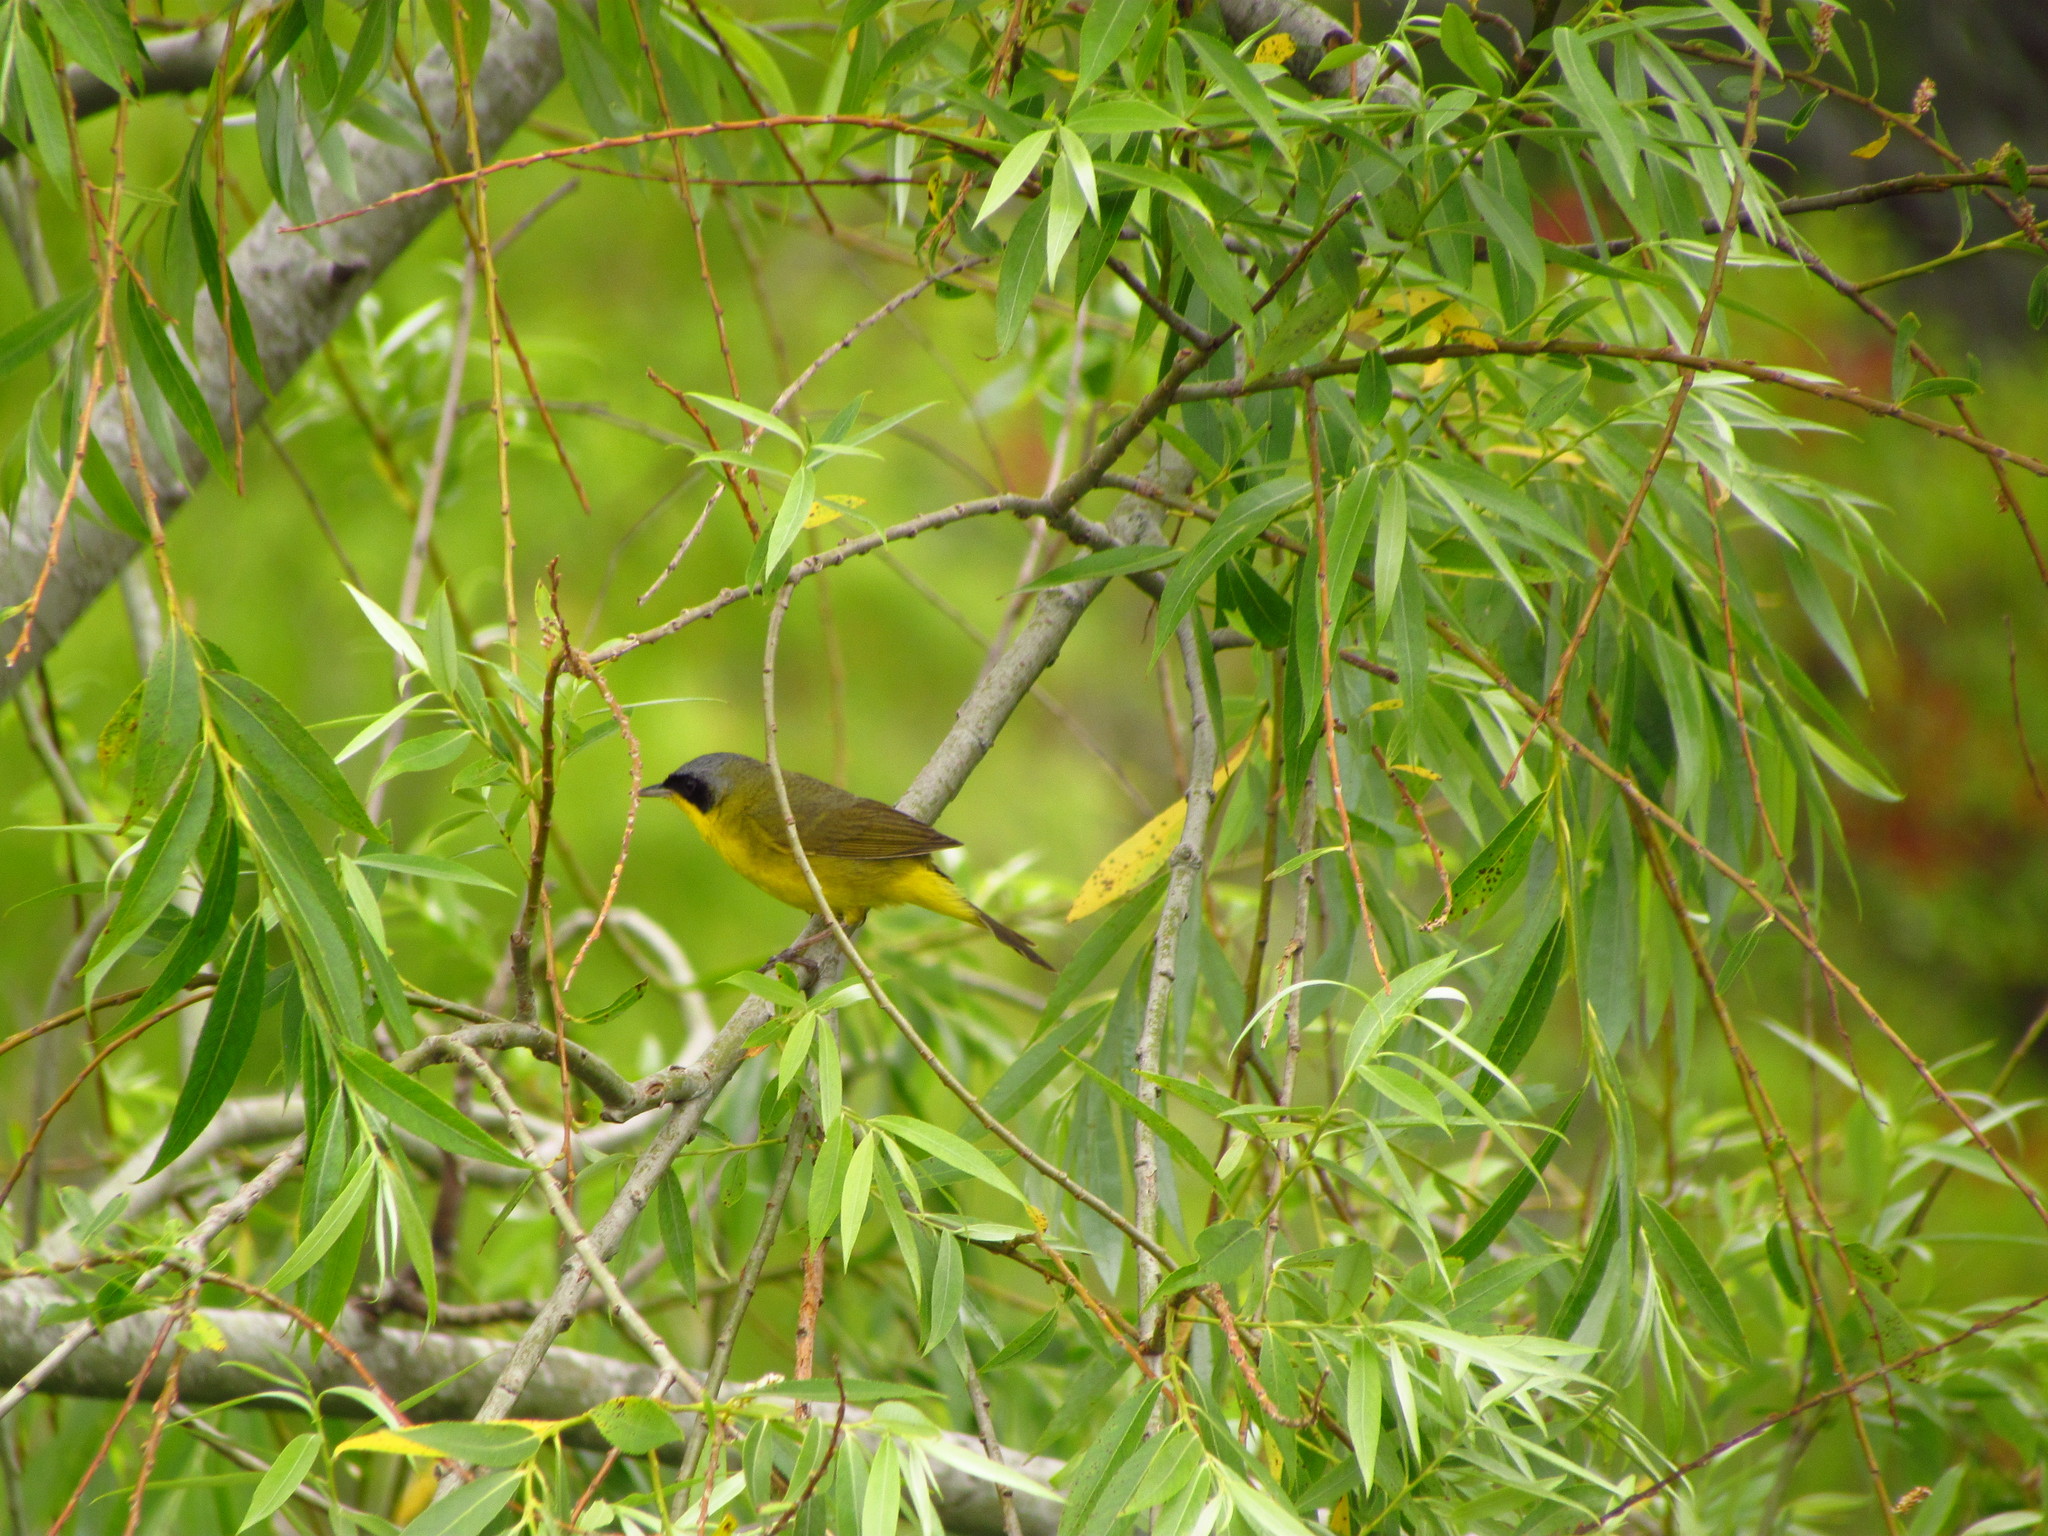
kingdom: Animalia
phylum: Chordata
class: Aves
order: Passeriformes
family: Parulidae
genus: Geothlypis
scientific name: Geothlypis velata
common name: Southern yellowthroat
